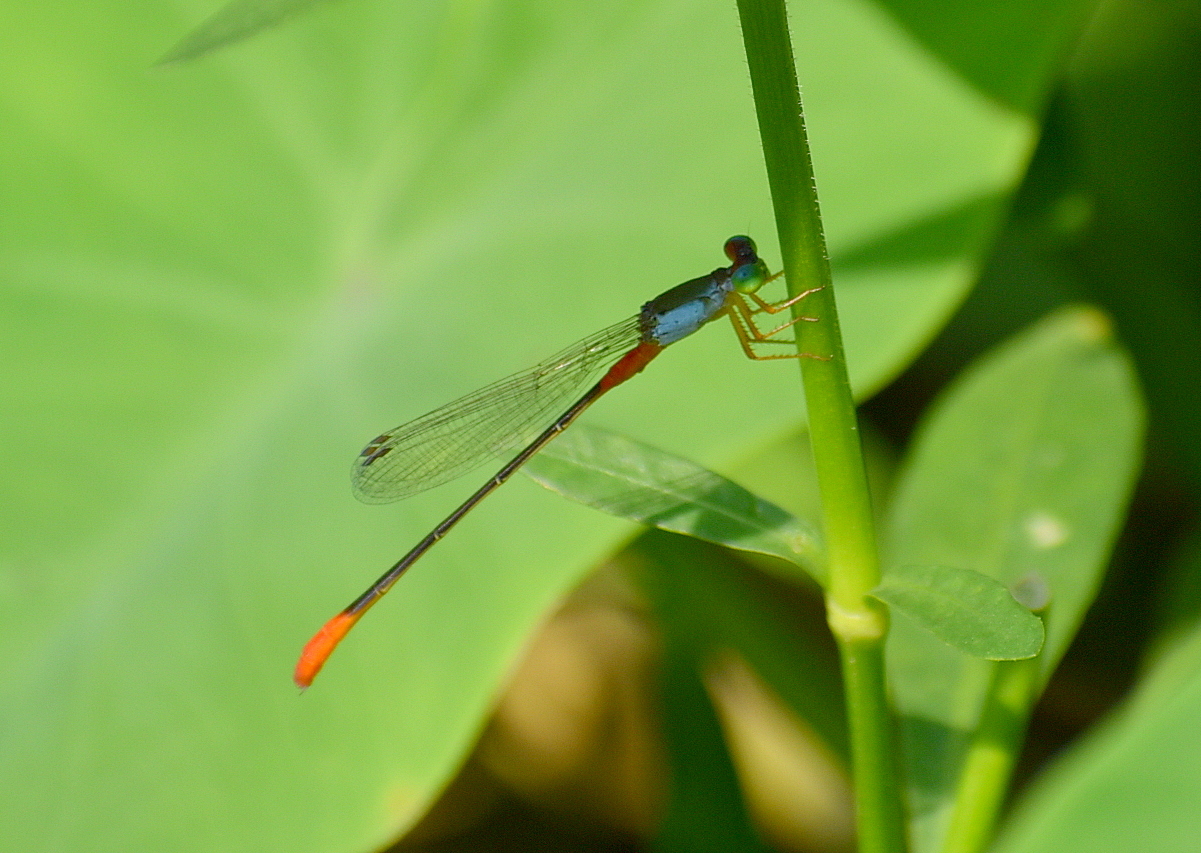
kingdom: Animalia
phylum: Arthropoda
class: Insecta
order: Odonata
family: Coenagrionidae
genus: Ceriagrion
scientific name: Ceriagrion cerinorubellum
